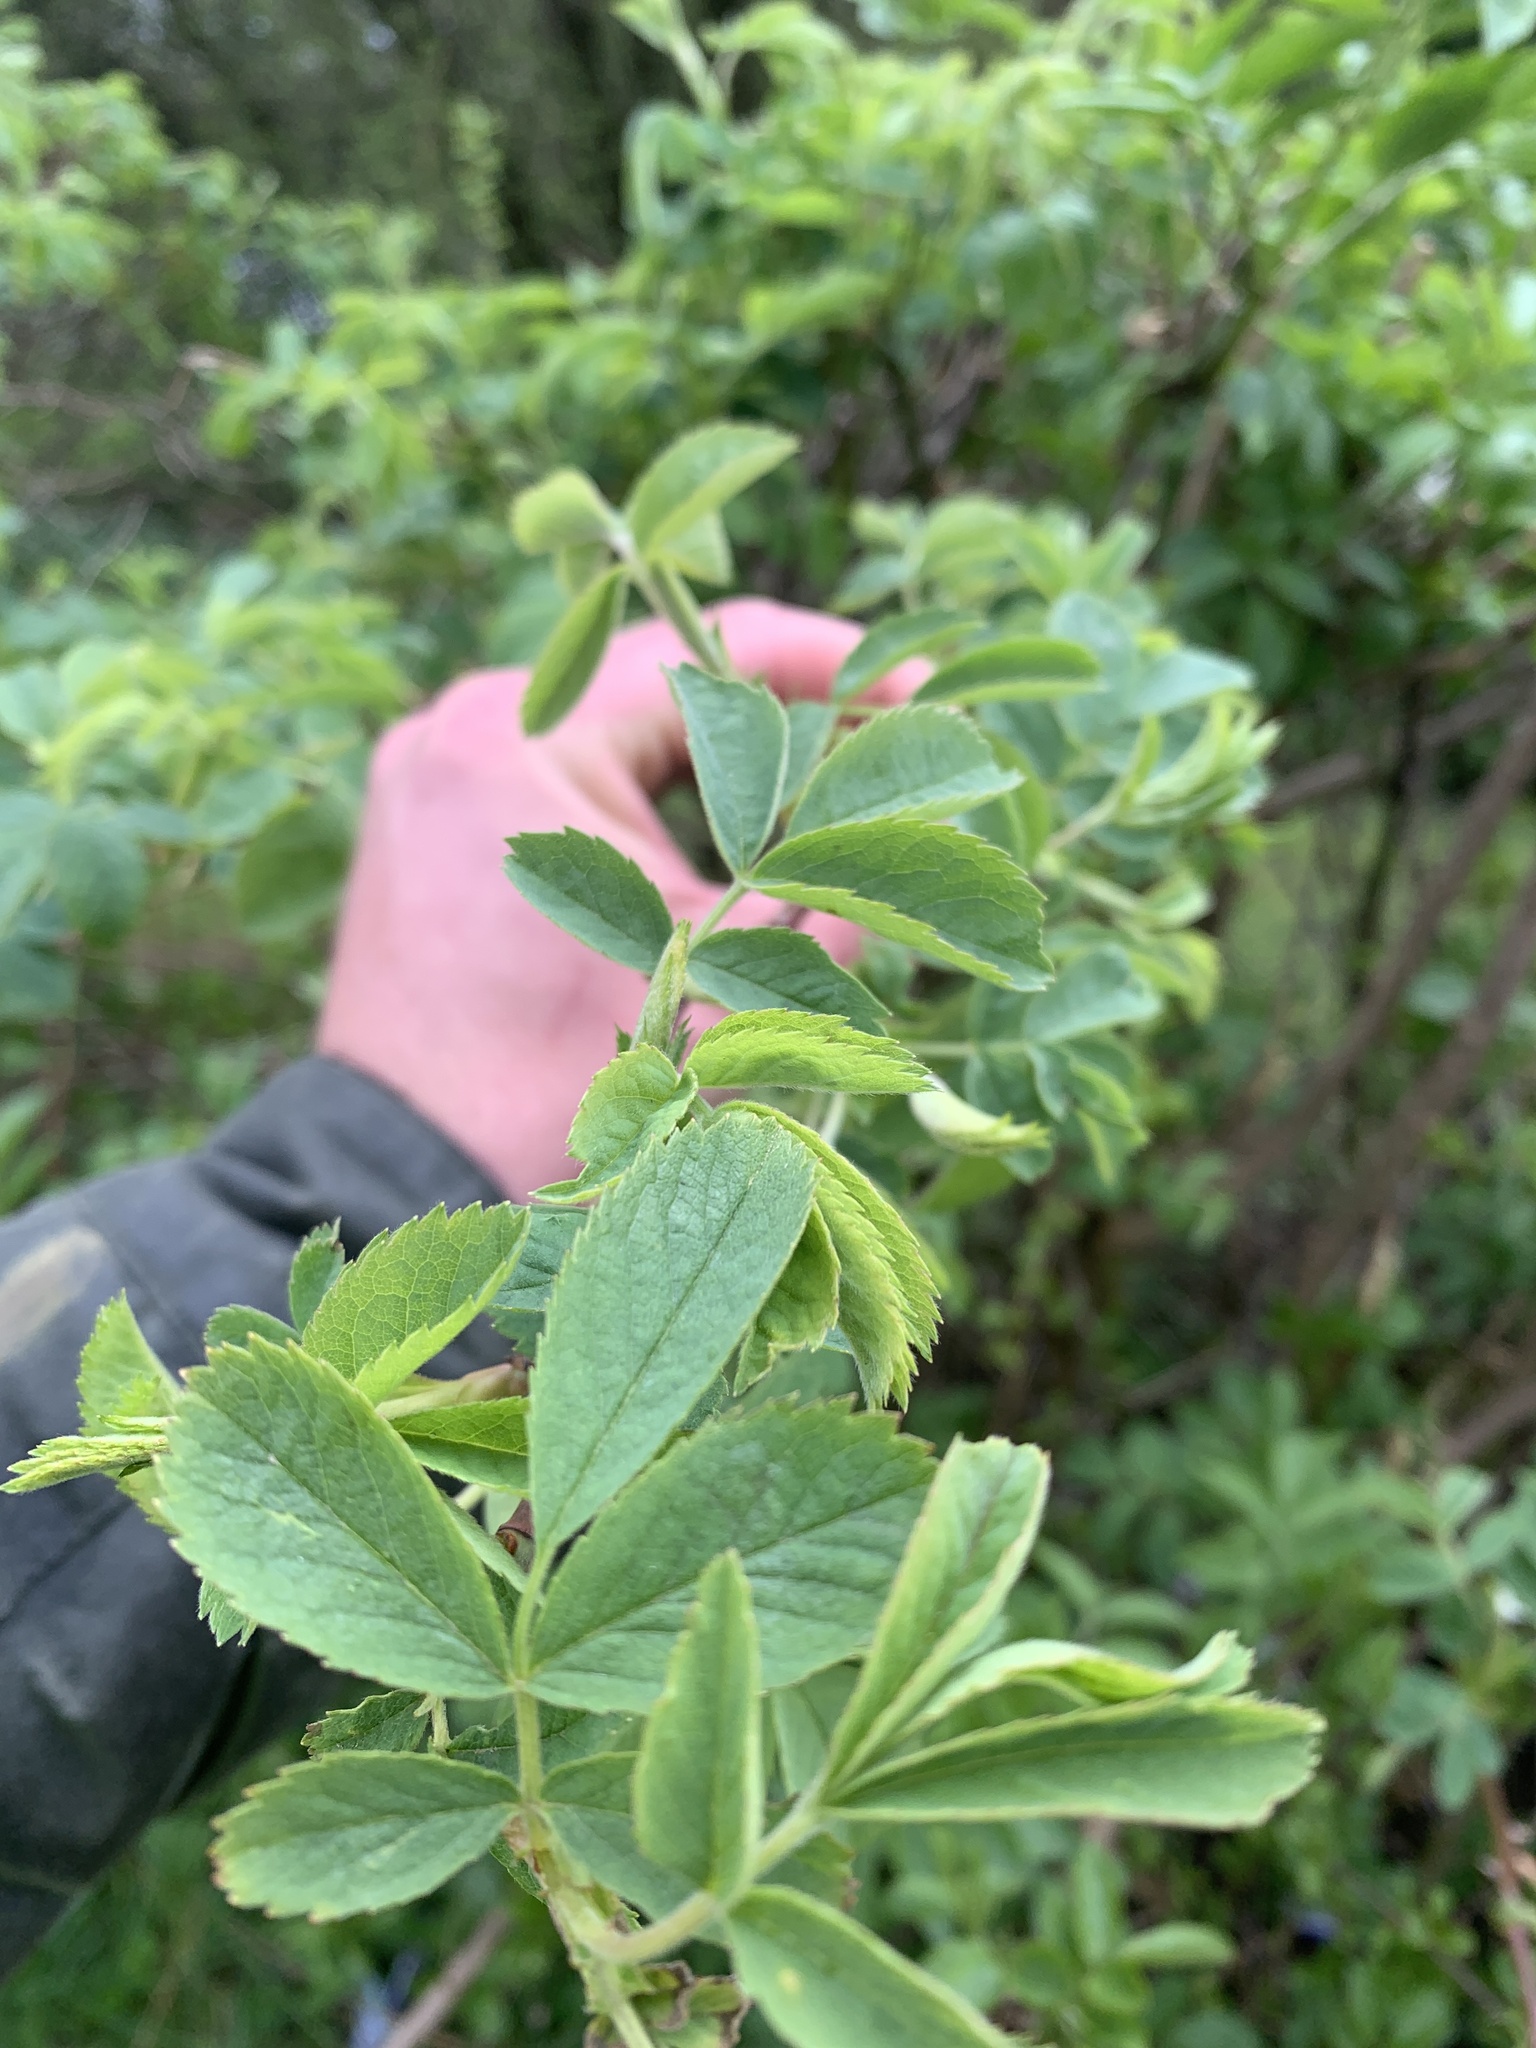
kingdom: Plantae
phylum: Tracheophyta
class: Magnoliopsida
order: Rosales
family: Rosaceae
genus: Rosa
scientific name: Rosa canina
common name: Dog rose
